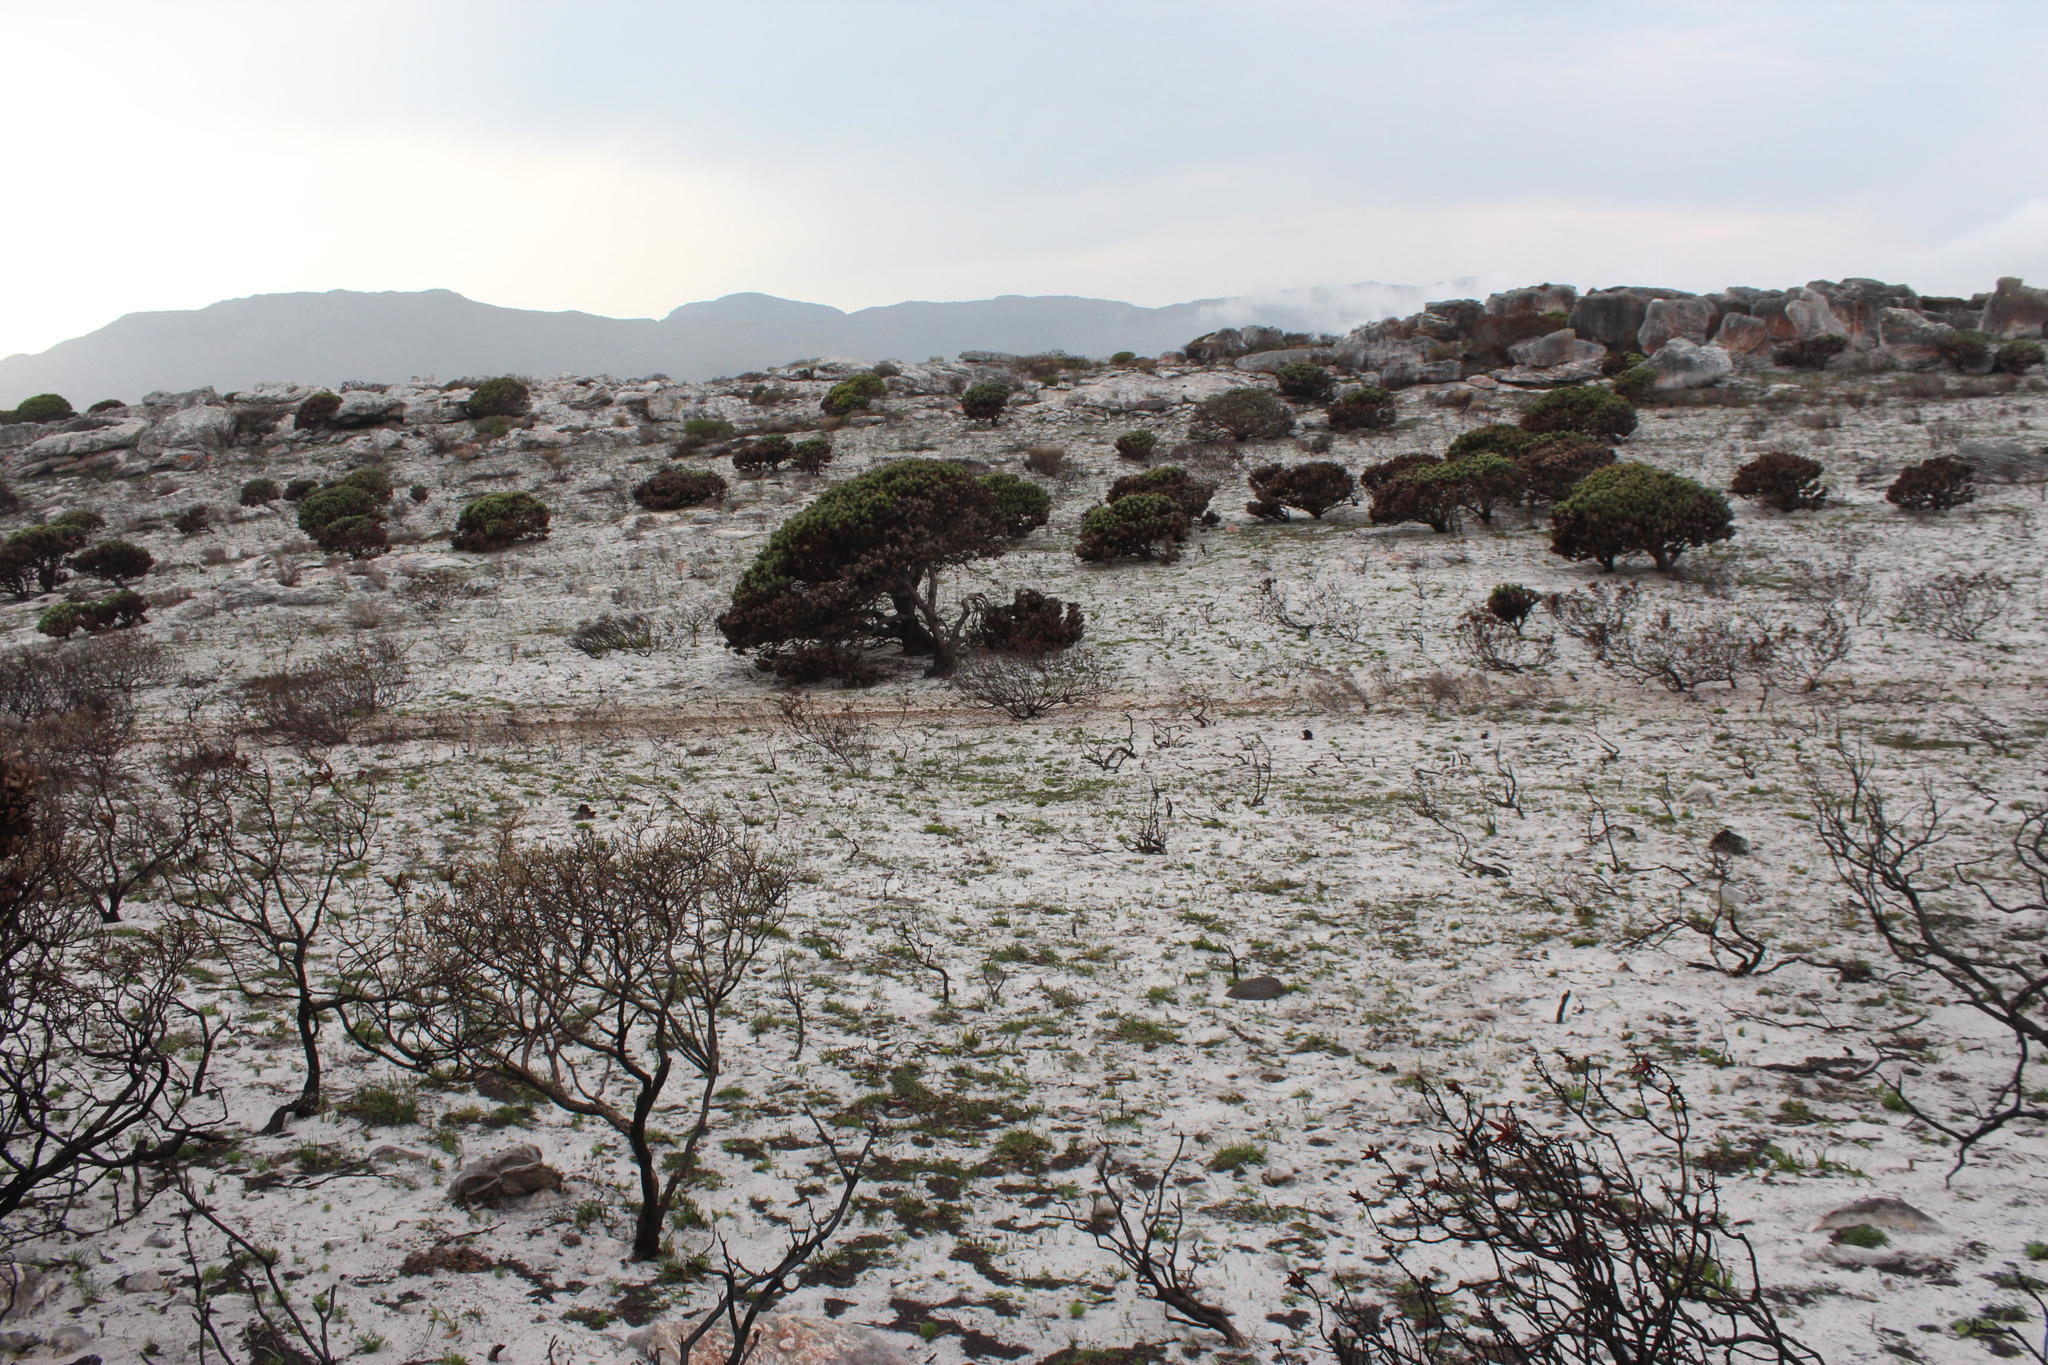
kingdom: Plantae
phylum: Tracheophyta
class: Magnoliopsida
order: Proteales
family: Proteaceae
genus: Mimetes
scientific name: Mimetes fimbriifolius
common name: Fringed bottlebrush
